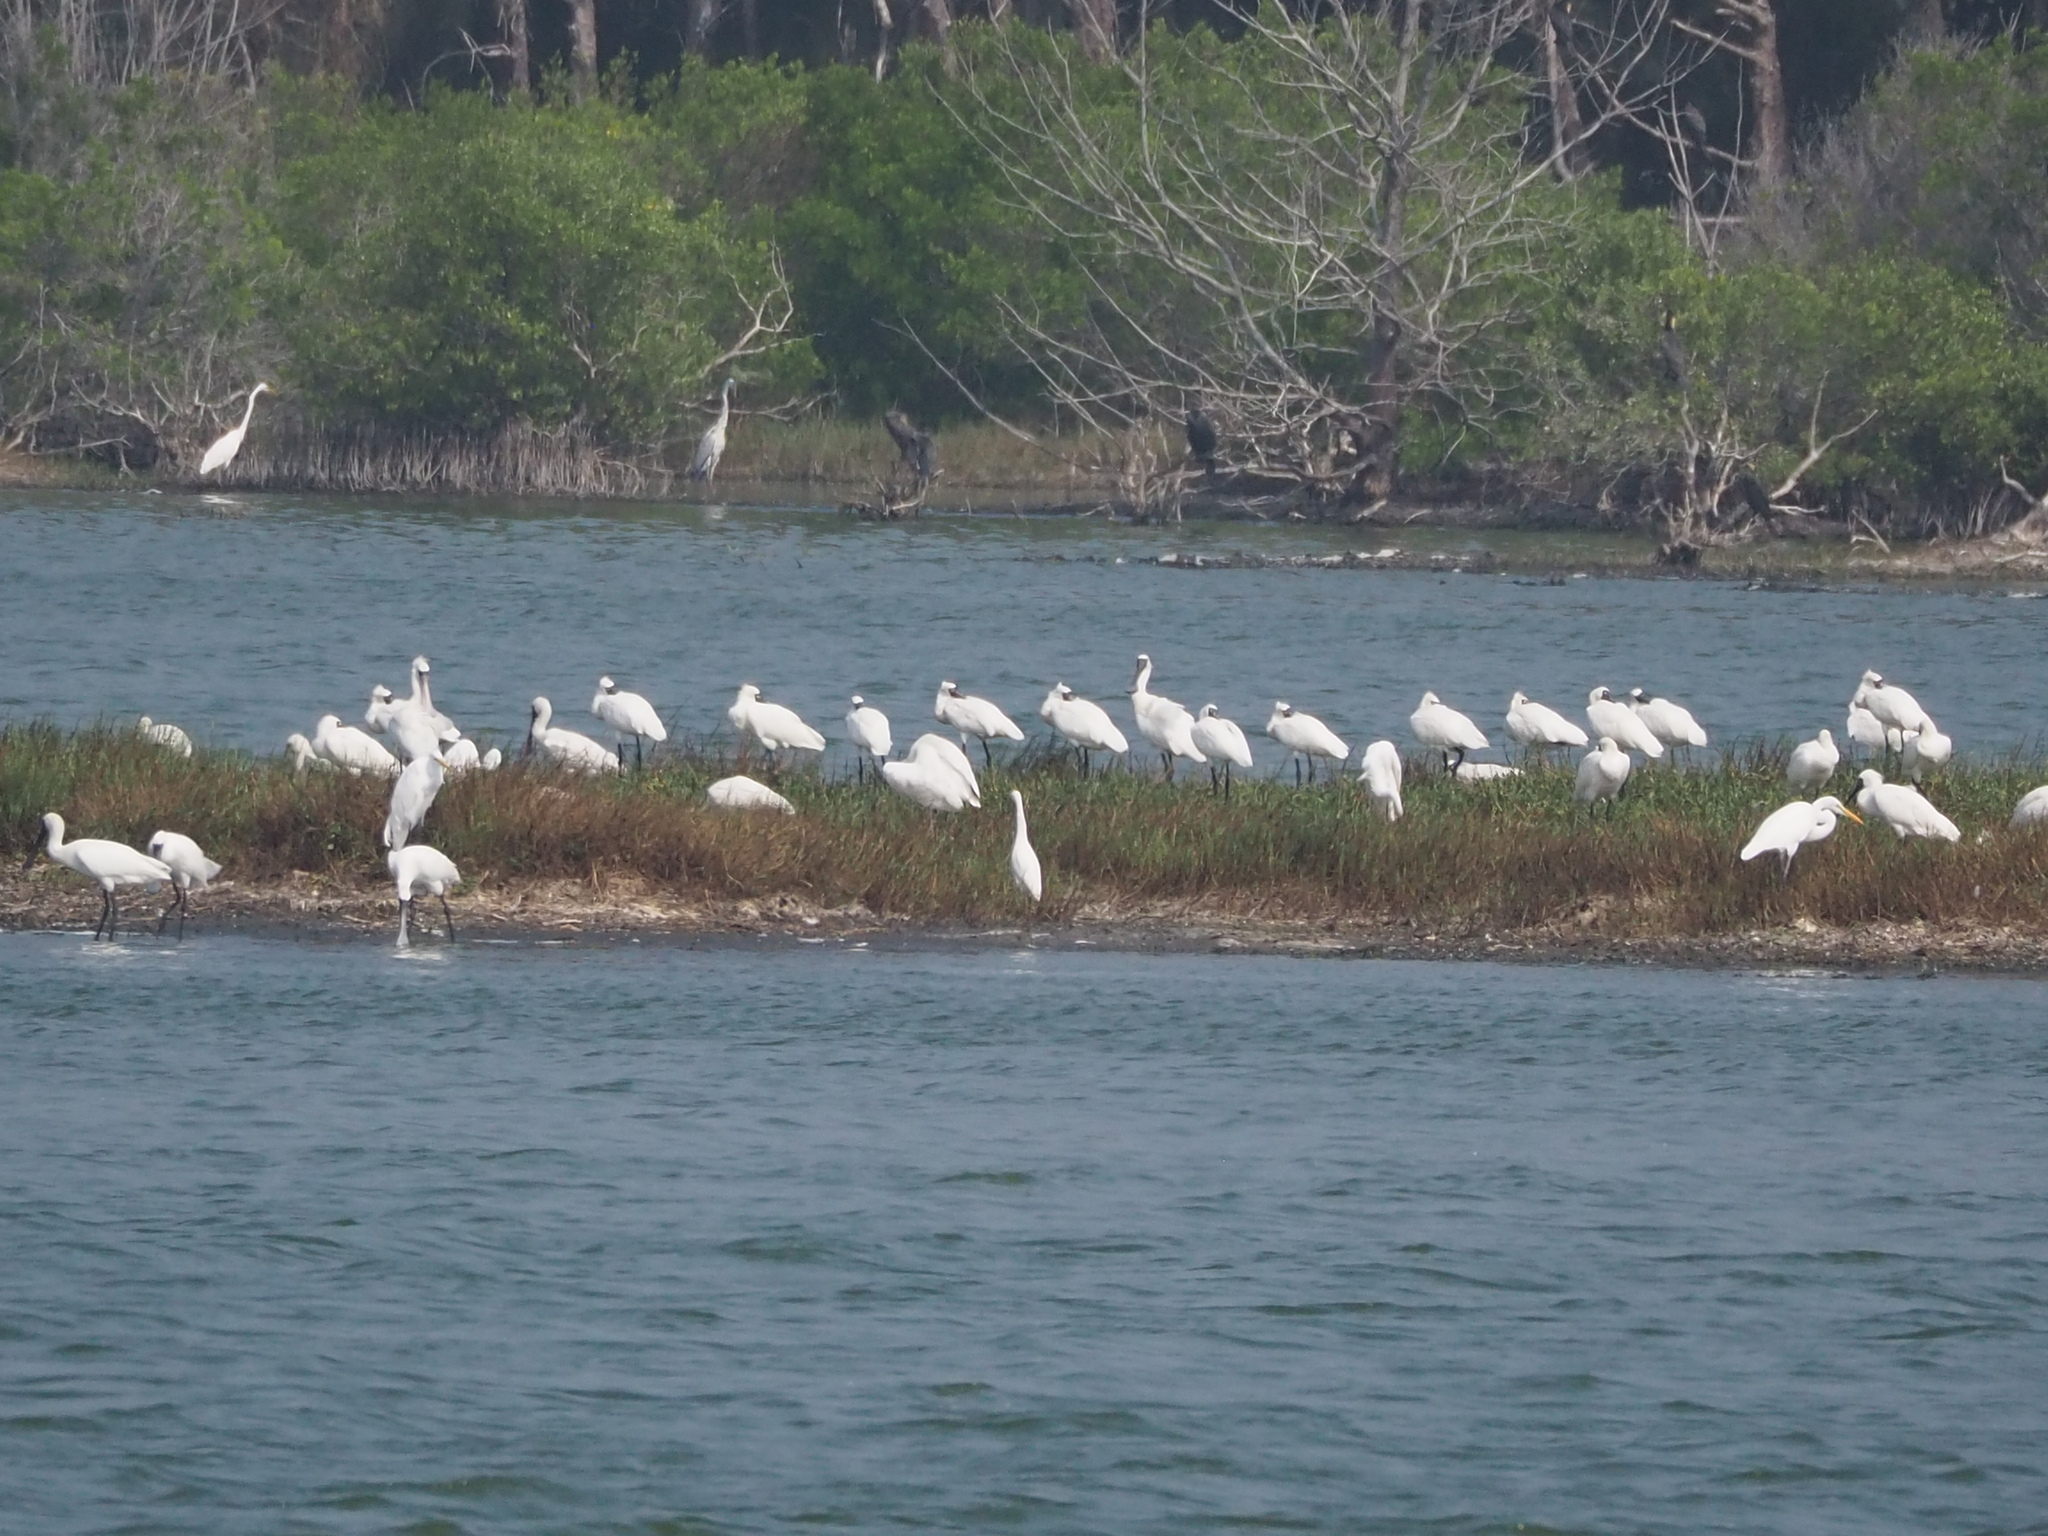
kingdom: Animalia
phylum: Chordata
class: Aves
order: Pelecaniformes
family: Threskiornithidae
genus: Platalea
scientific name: Platalea minor
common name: Black-faced spoonbill
